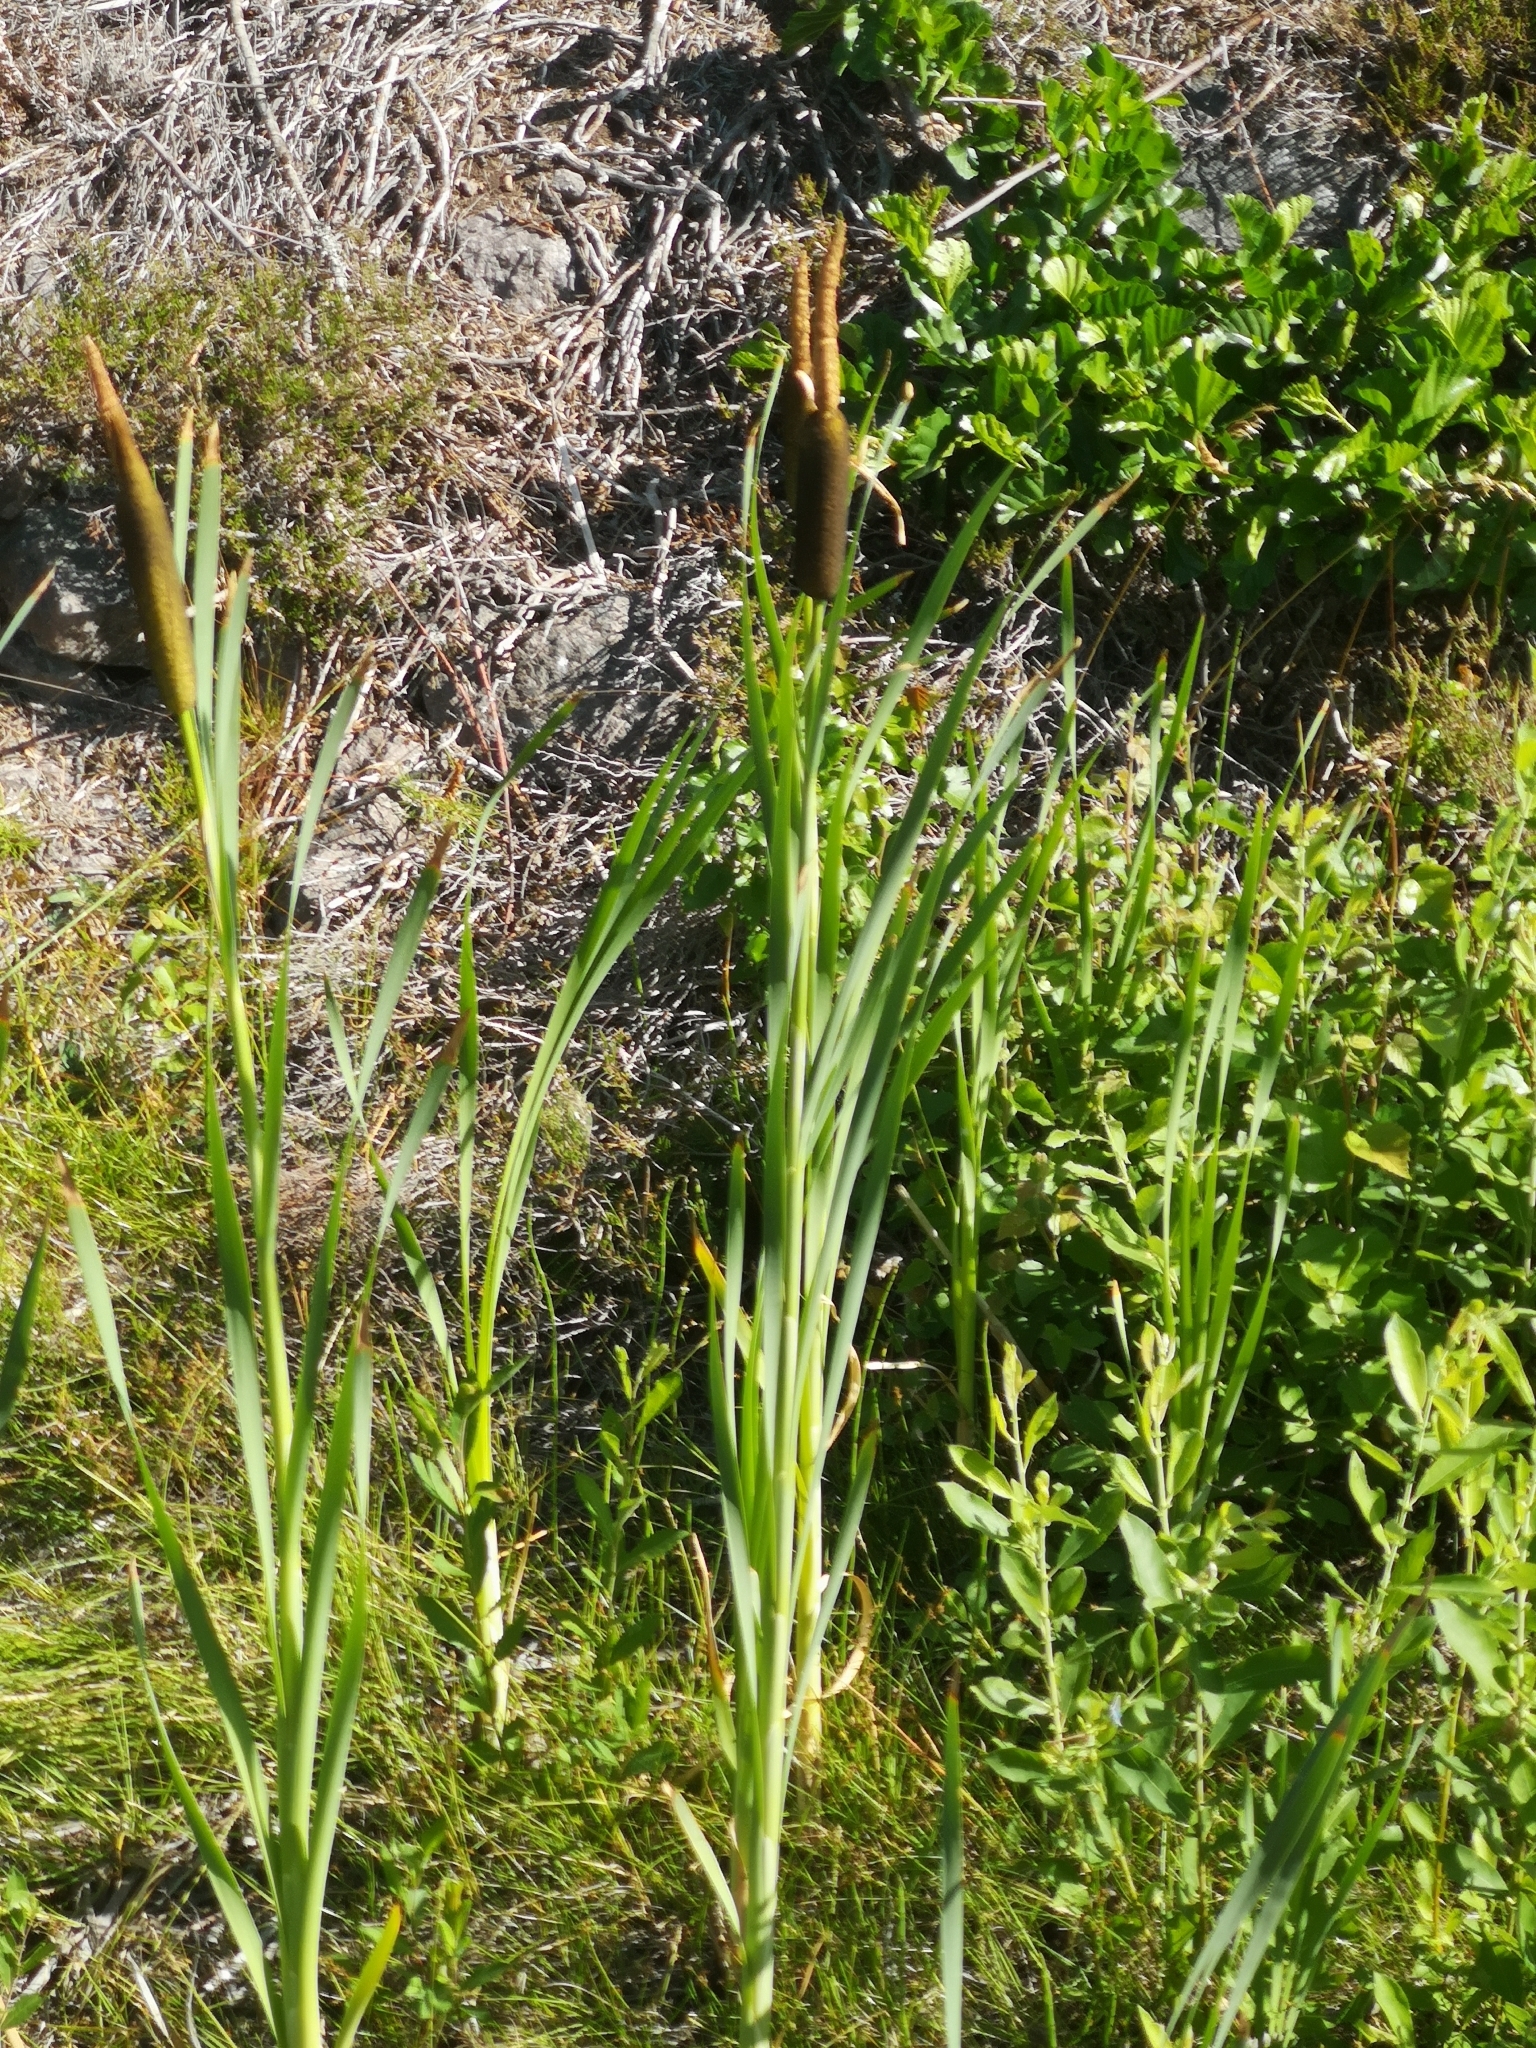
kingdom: Plantae
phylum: Tracheophyta
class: Liliopsida
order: Poales
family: Typhaceae
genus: Typha
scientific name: Typha latifolia
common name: Broadleaf cattail
